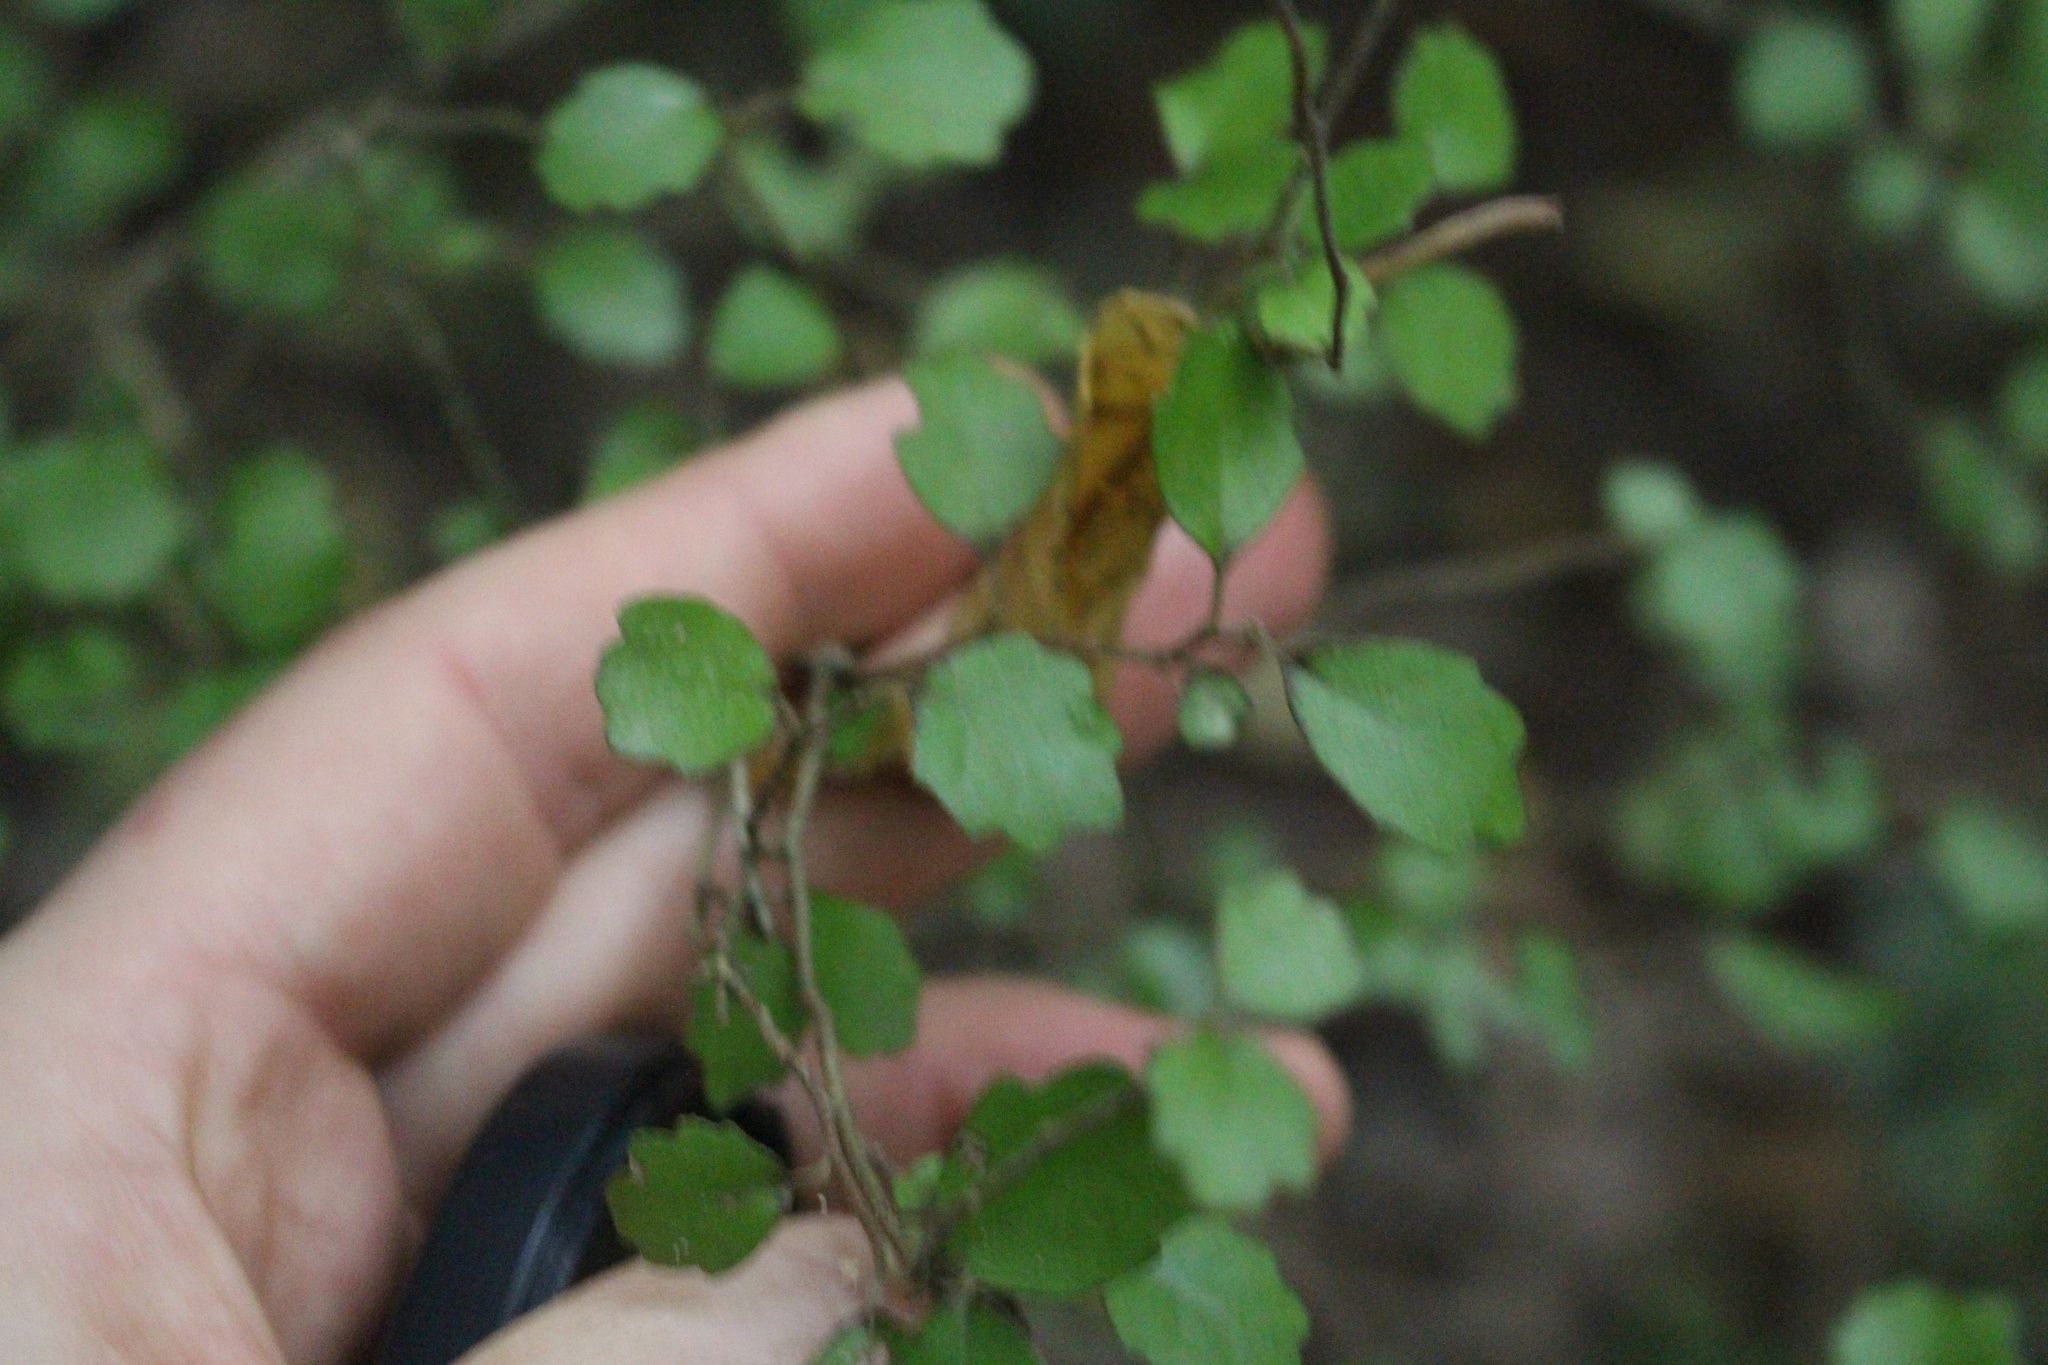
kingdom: Plantae
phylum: Tracheophyta
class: Magnoliopsida
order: Apiales
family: Pennantiaceae
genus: Pennantia
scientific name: Pennantia corymbosa
